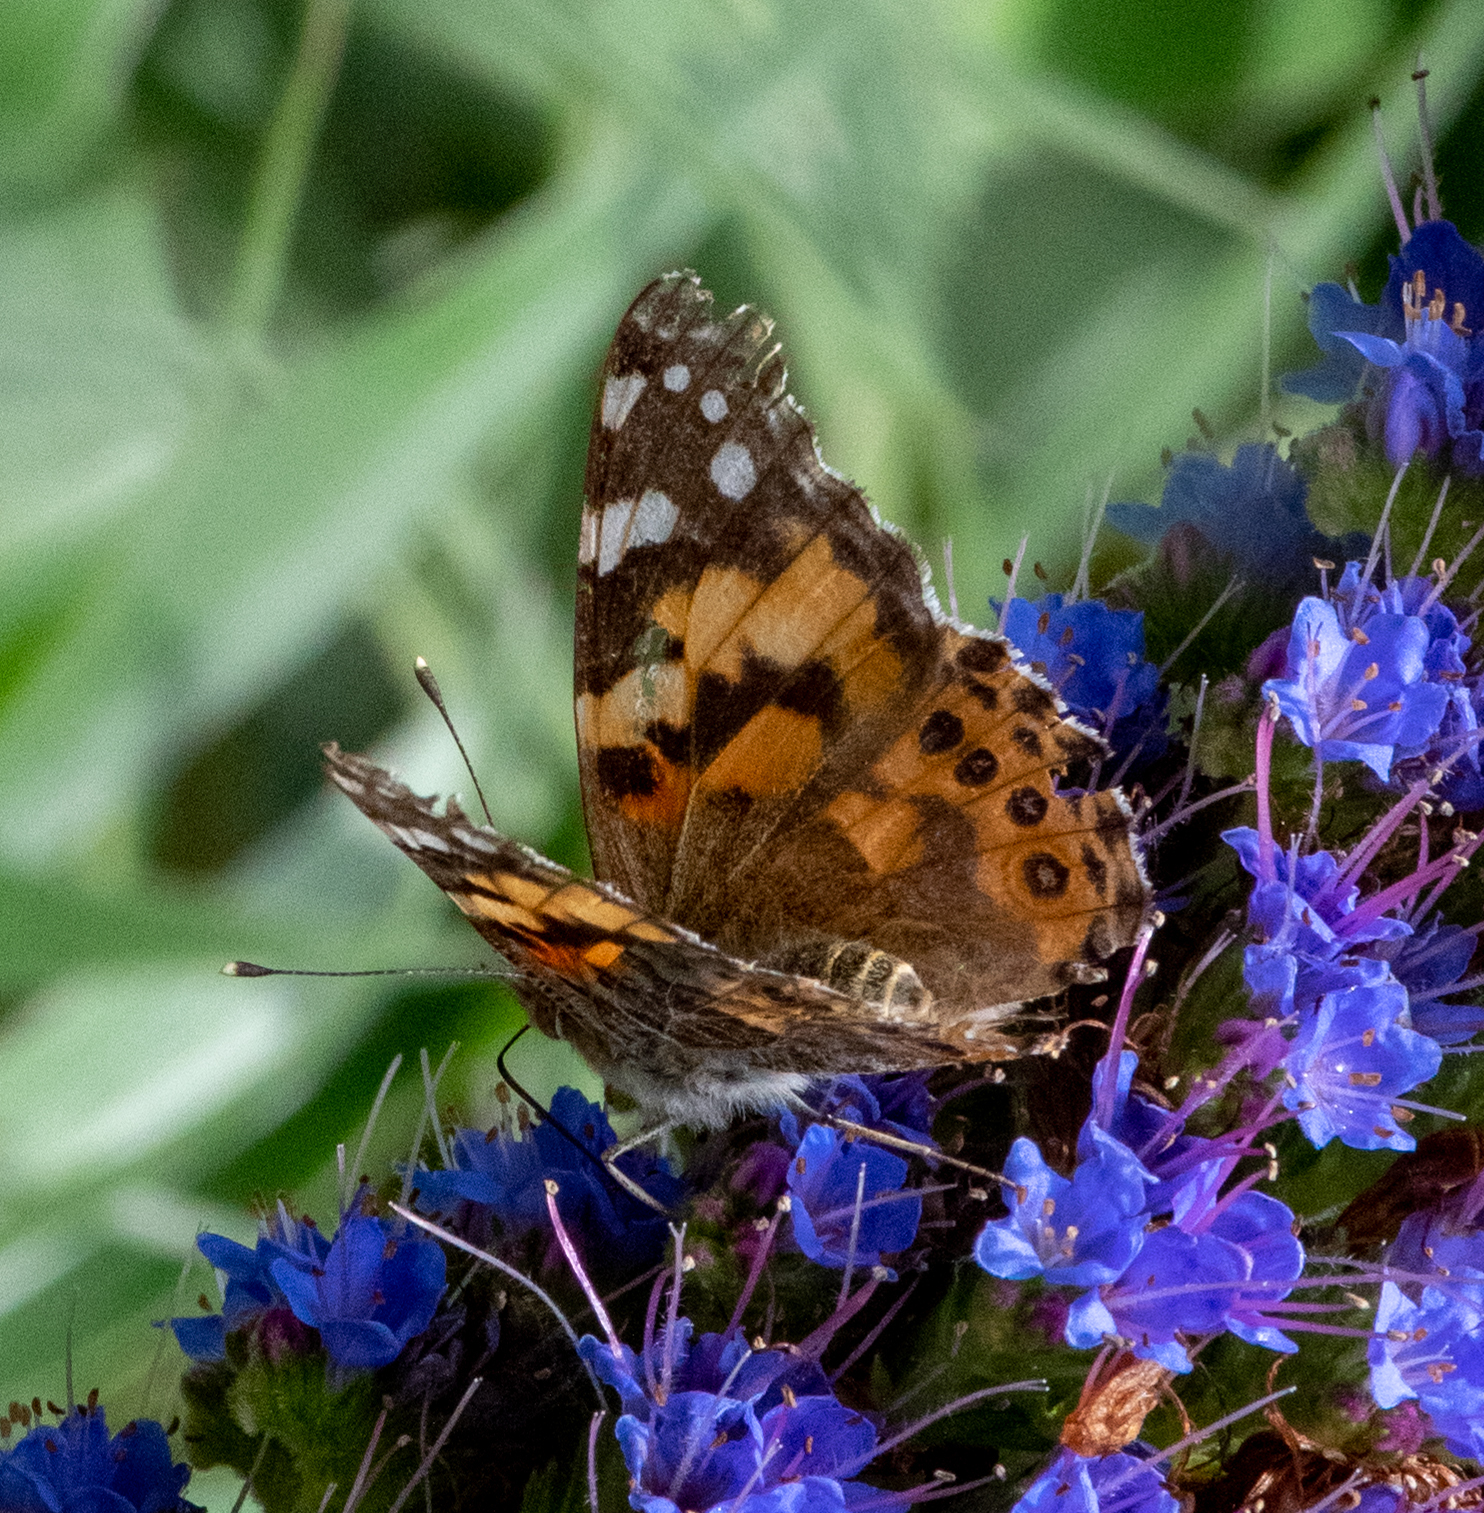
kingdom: Animalia
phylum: Arthropoda
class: Insecta
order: Lepidoptera
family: Nymphalidae
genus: Vanessa
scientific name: Vanessa cardui
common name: Painted lady
